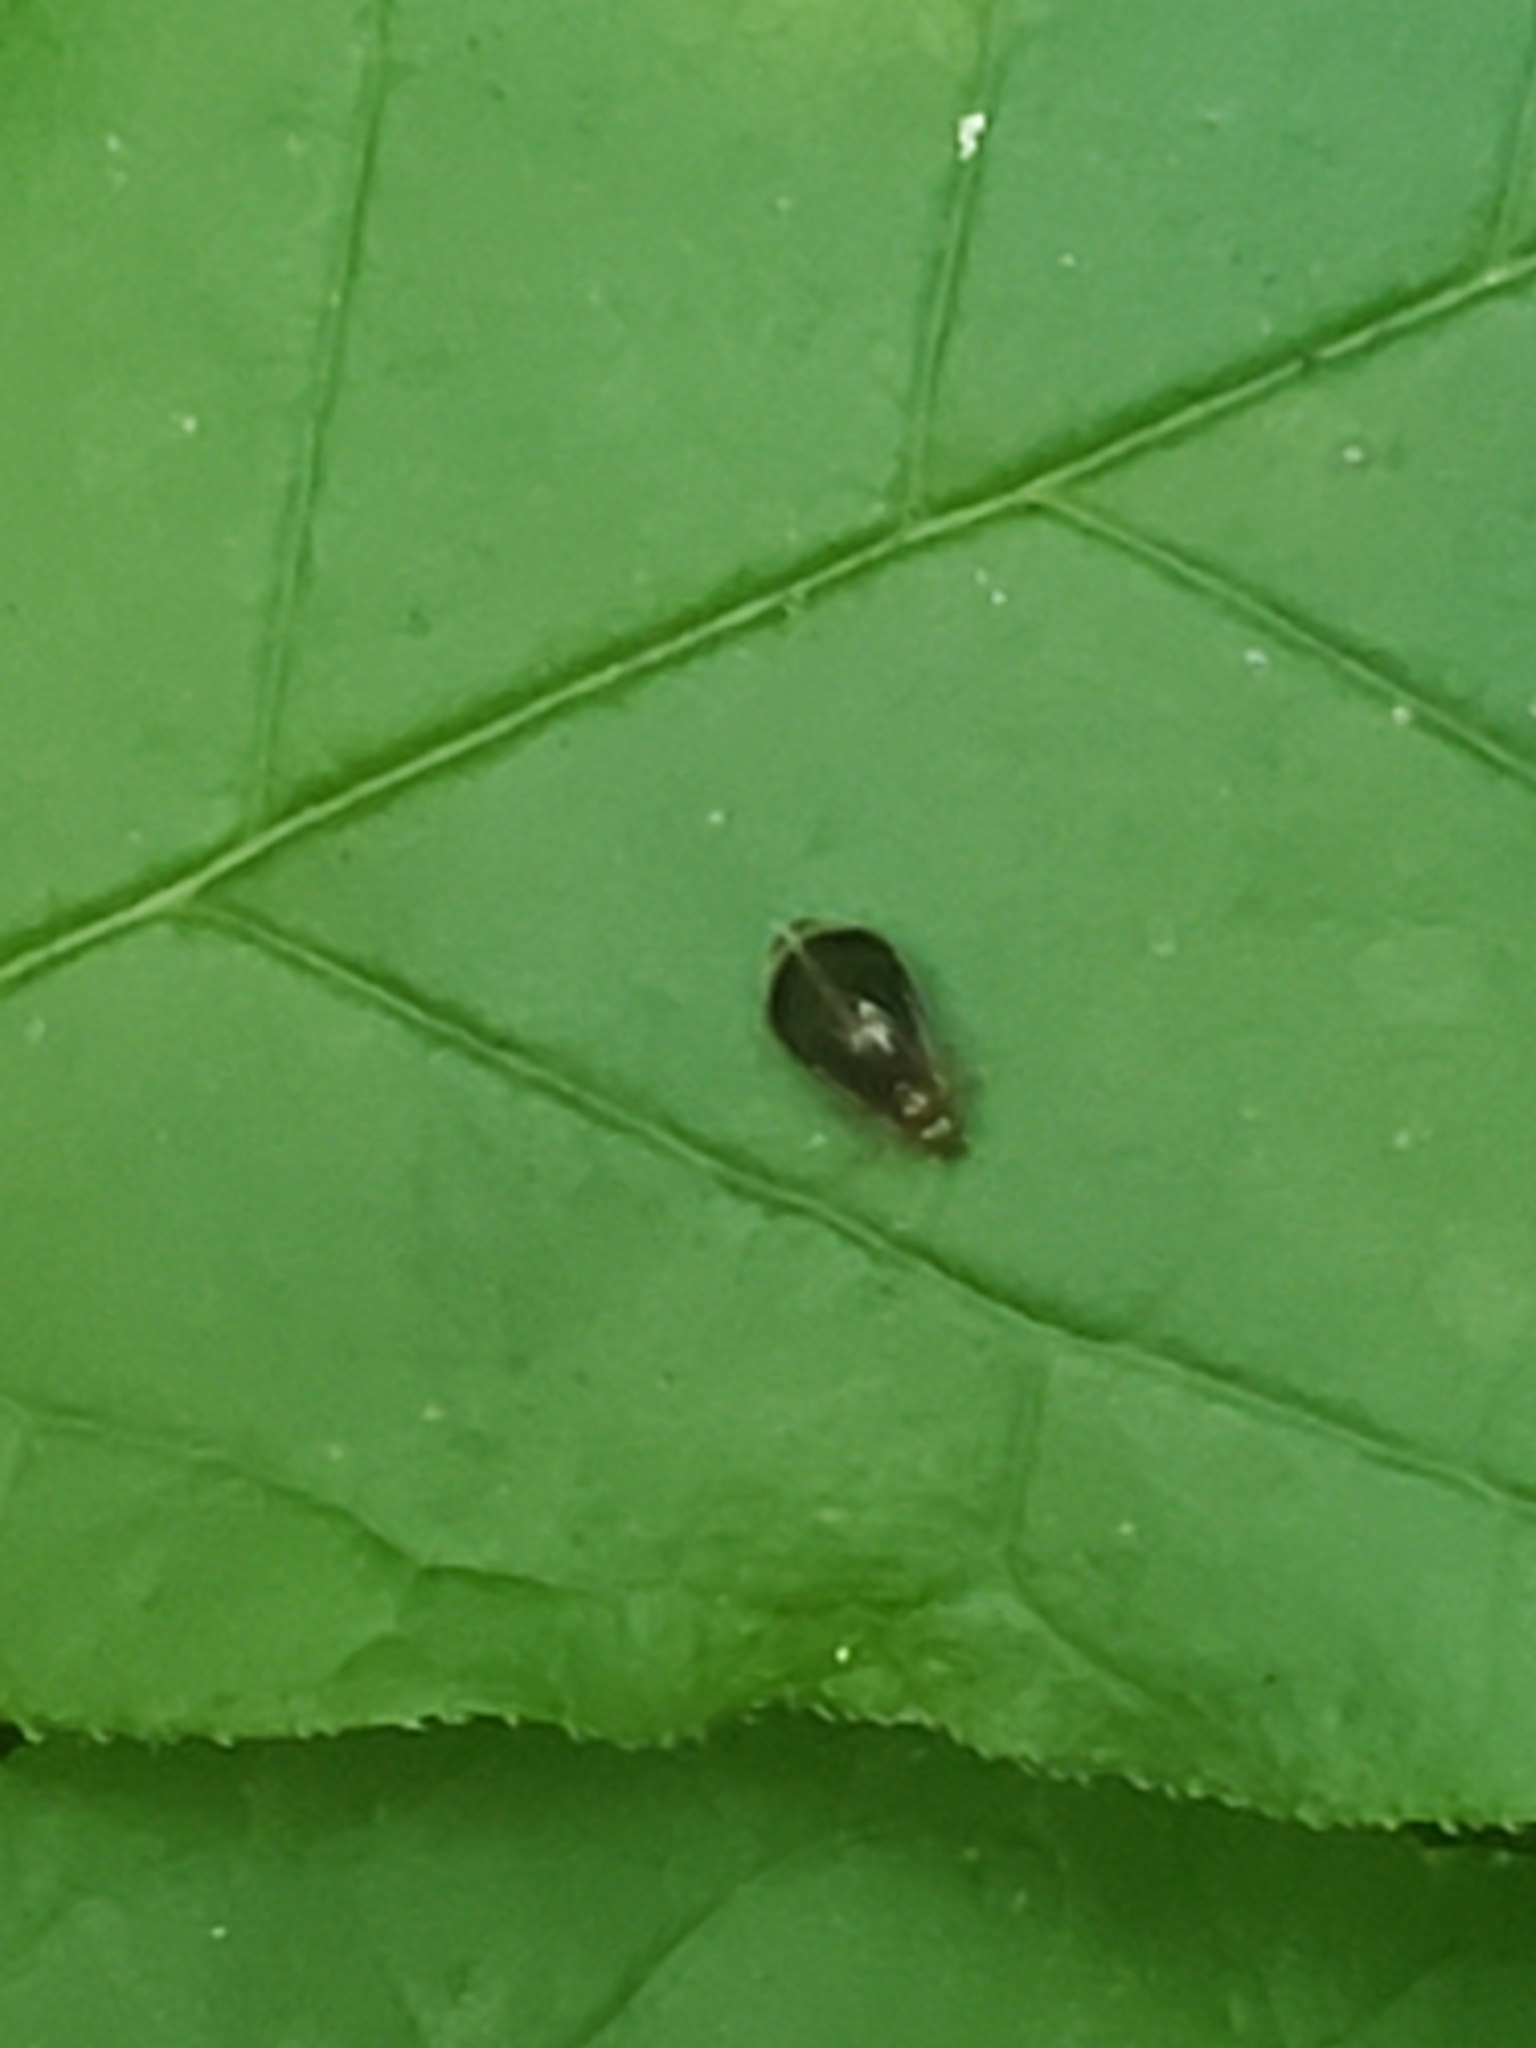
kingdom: Animalia
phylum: Arthropoda
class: Insecta
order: Psocodea
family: Amphipsocidae
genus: Polypsocus
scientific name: Polypsocus corruptus
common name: Corrupt barklouse
